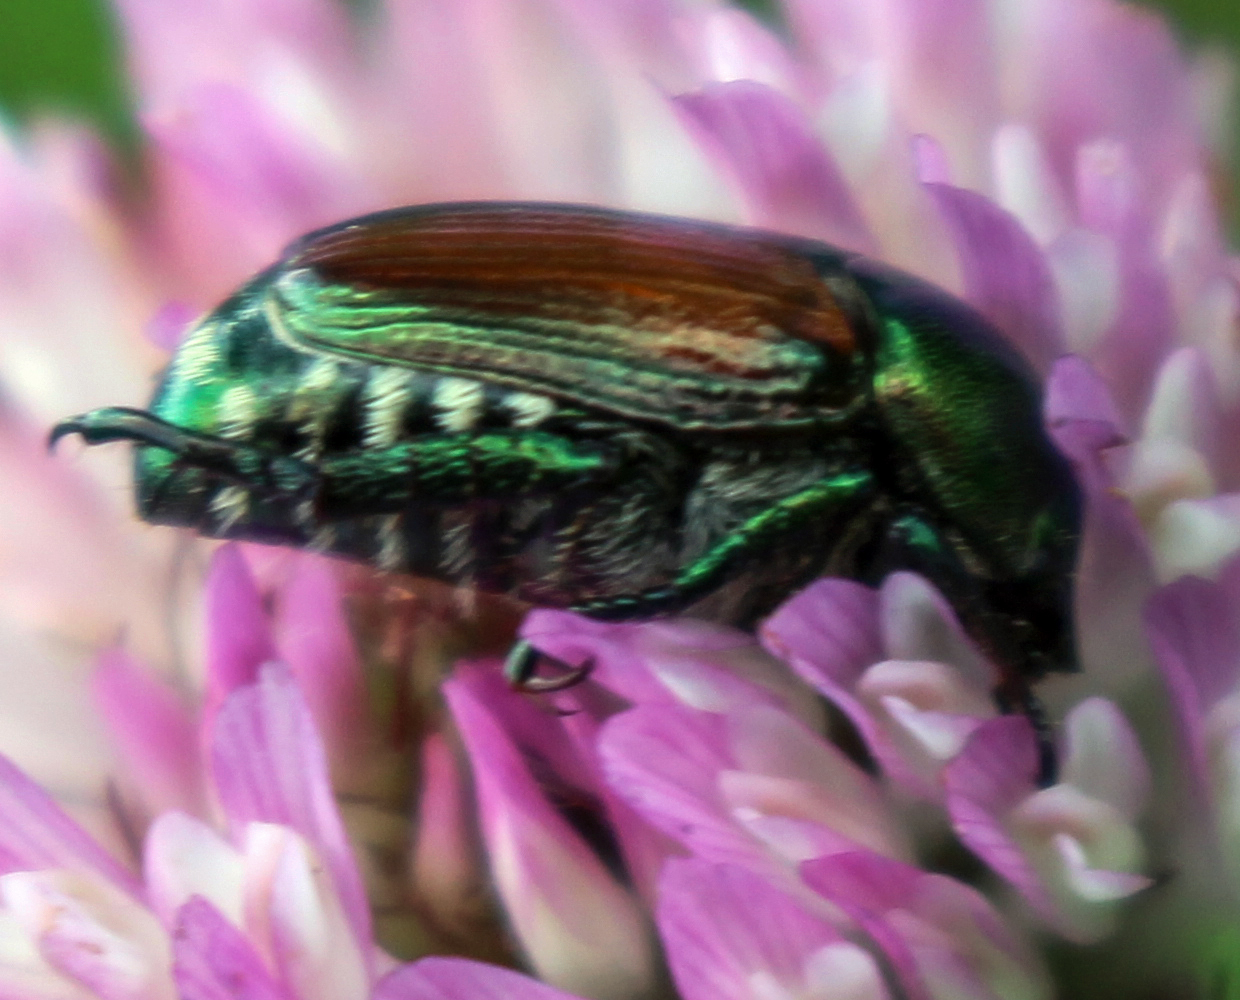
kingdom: Animalia
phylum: Arthropoda
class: Insecta
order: Coleoptera
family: Scarabaeidae
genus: Popillia
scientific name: Popillia japonica
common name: Japanese beetle
